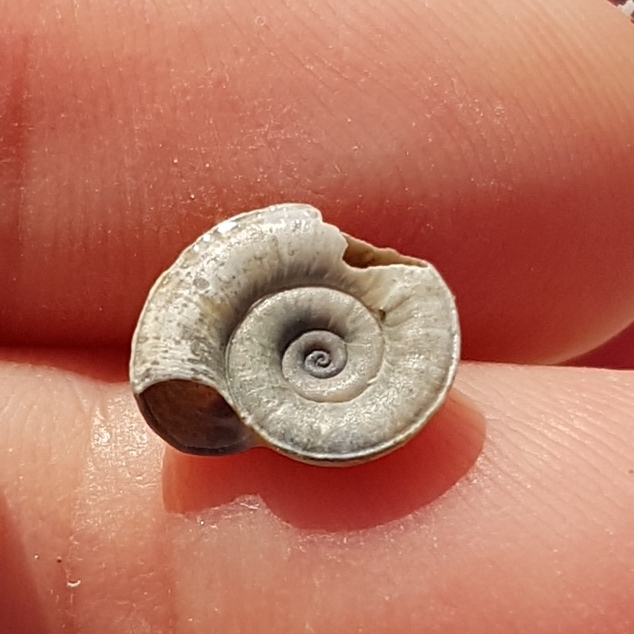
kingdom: Animalia
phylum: Mollusca
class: Gastropoda
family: Planorbidae
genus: Planorbis
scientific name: Planorbis planorbis
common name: Margined ramshorn
